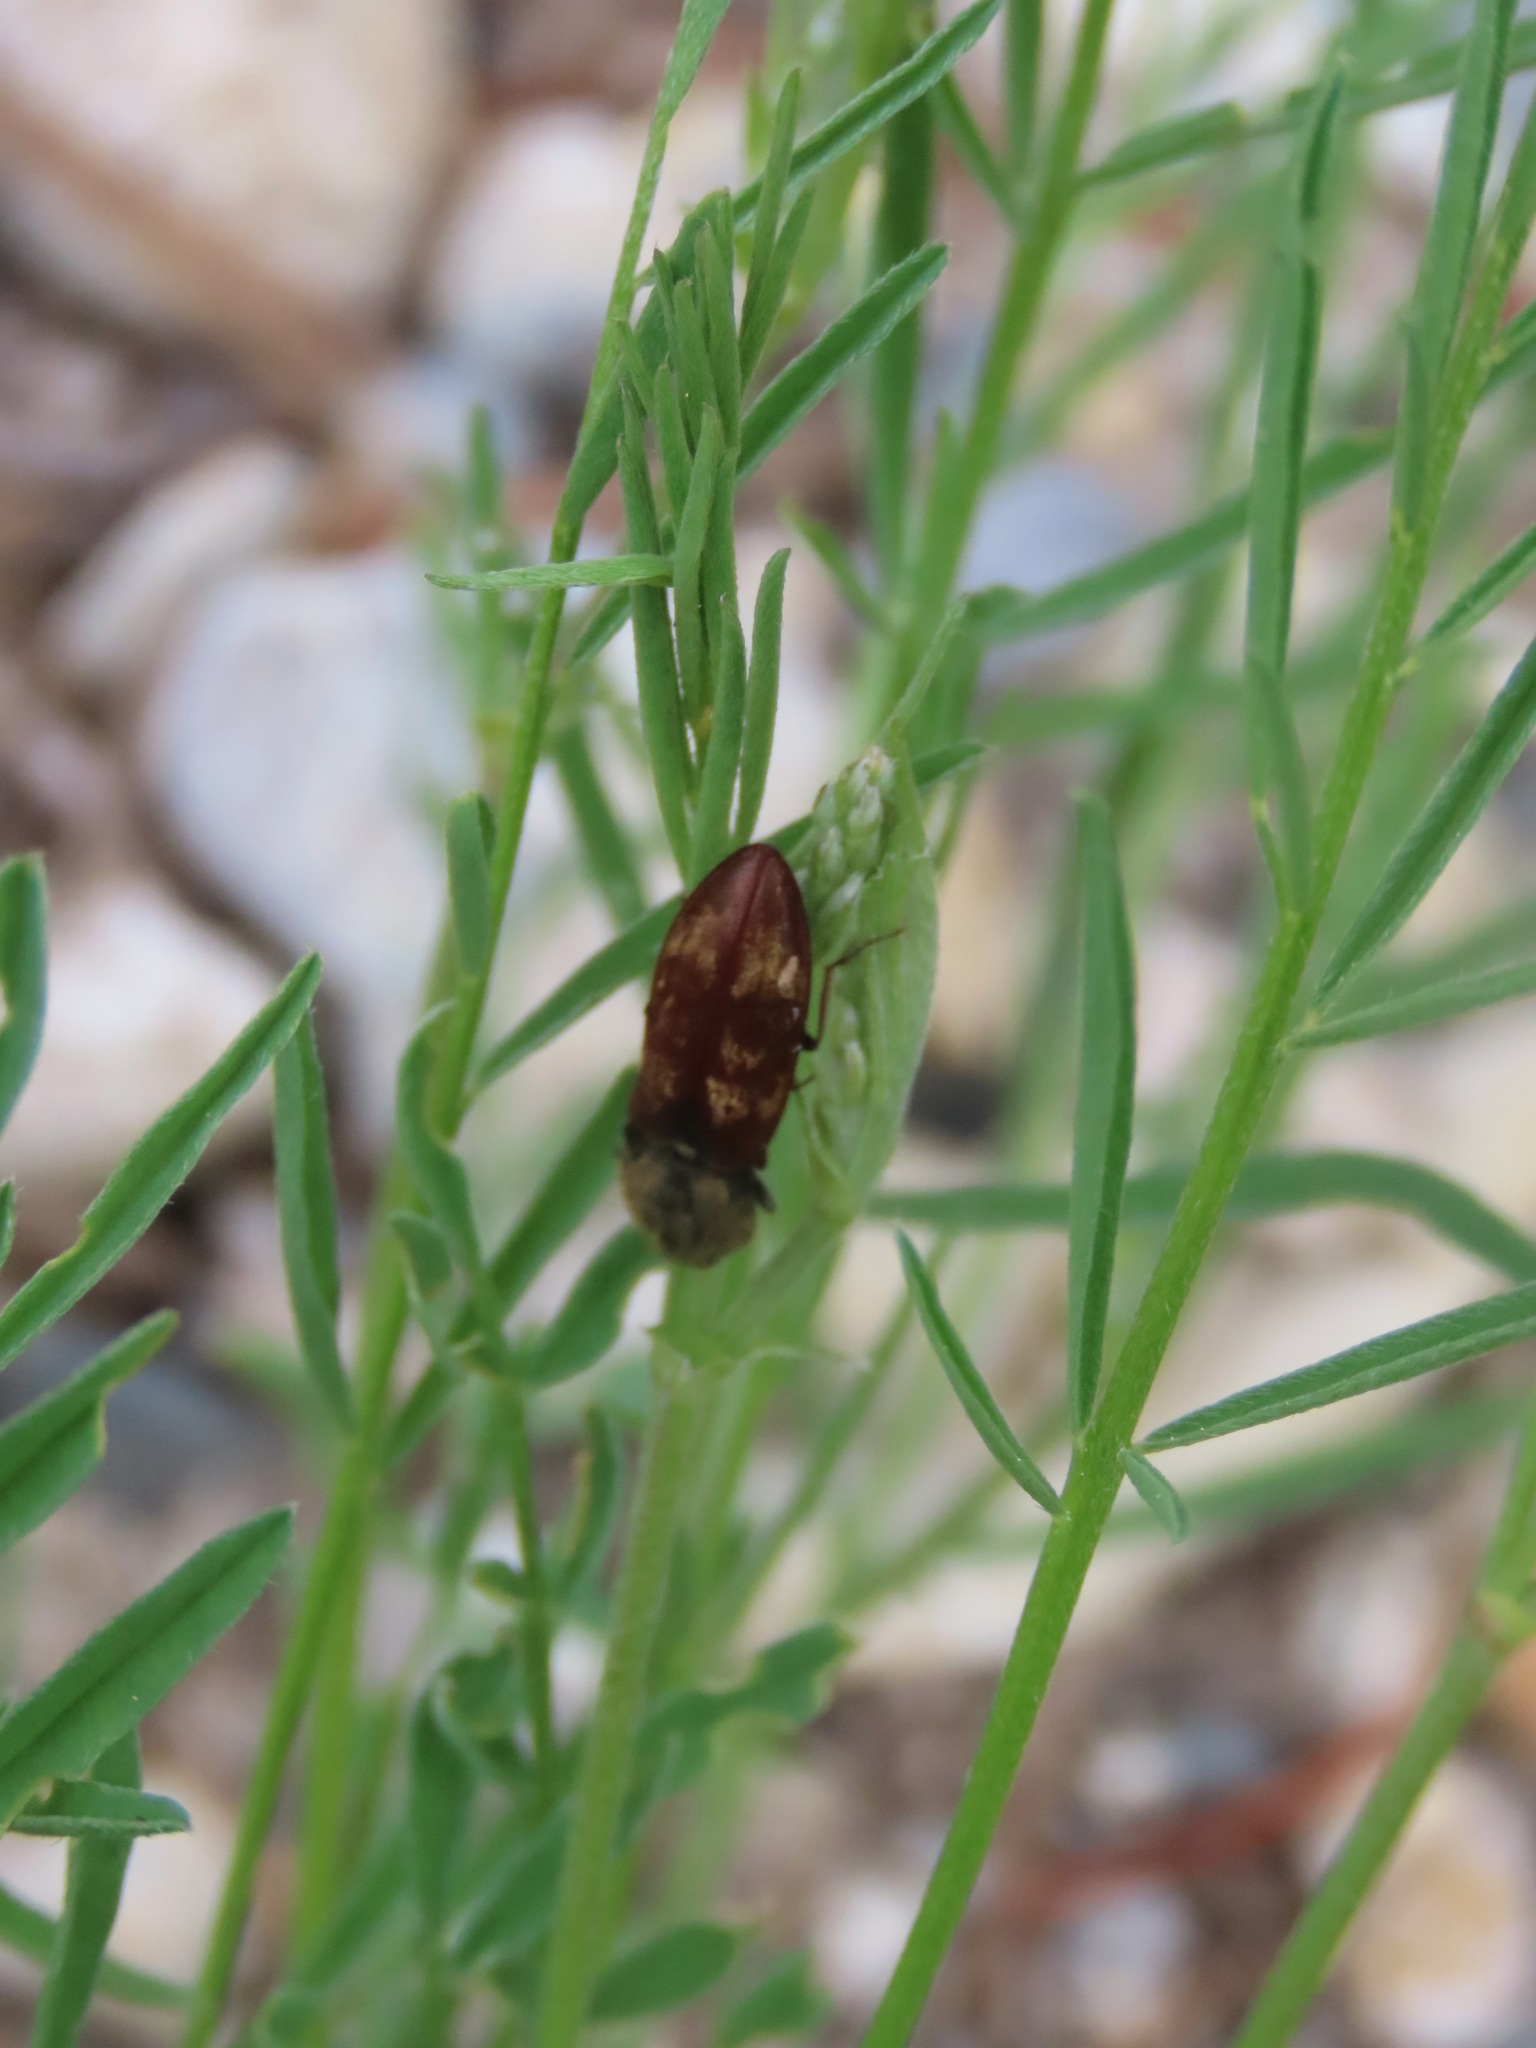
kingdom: Animalia
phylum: Arthropoda
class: Insecta
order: Coleoptera
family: Elateridae
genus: Prosternon
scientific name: Prosternon bombycinum
